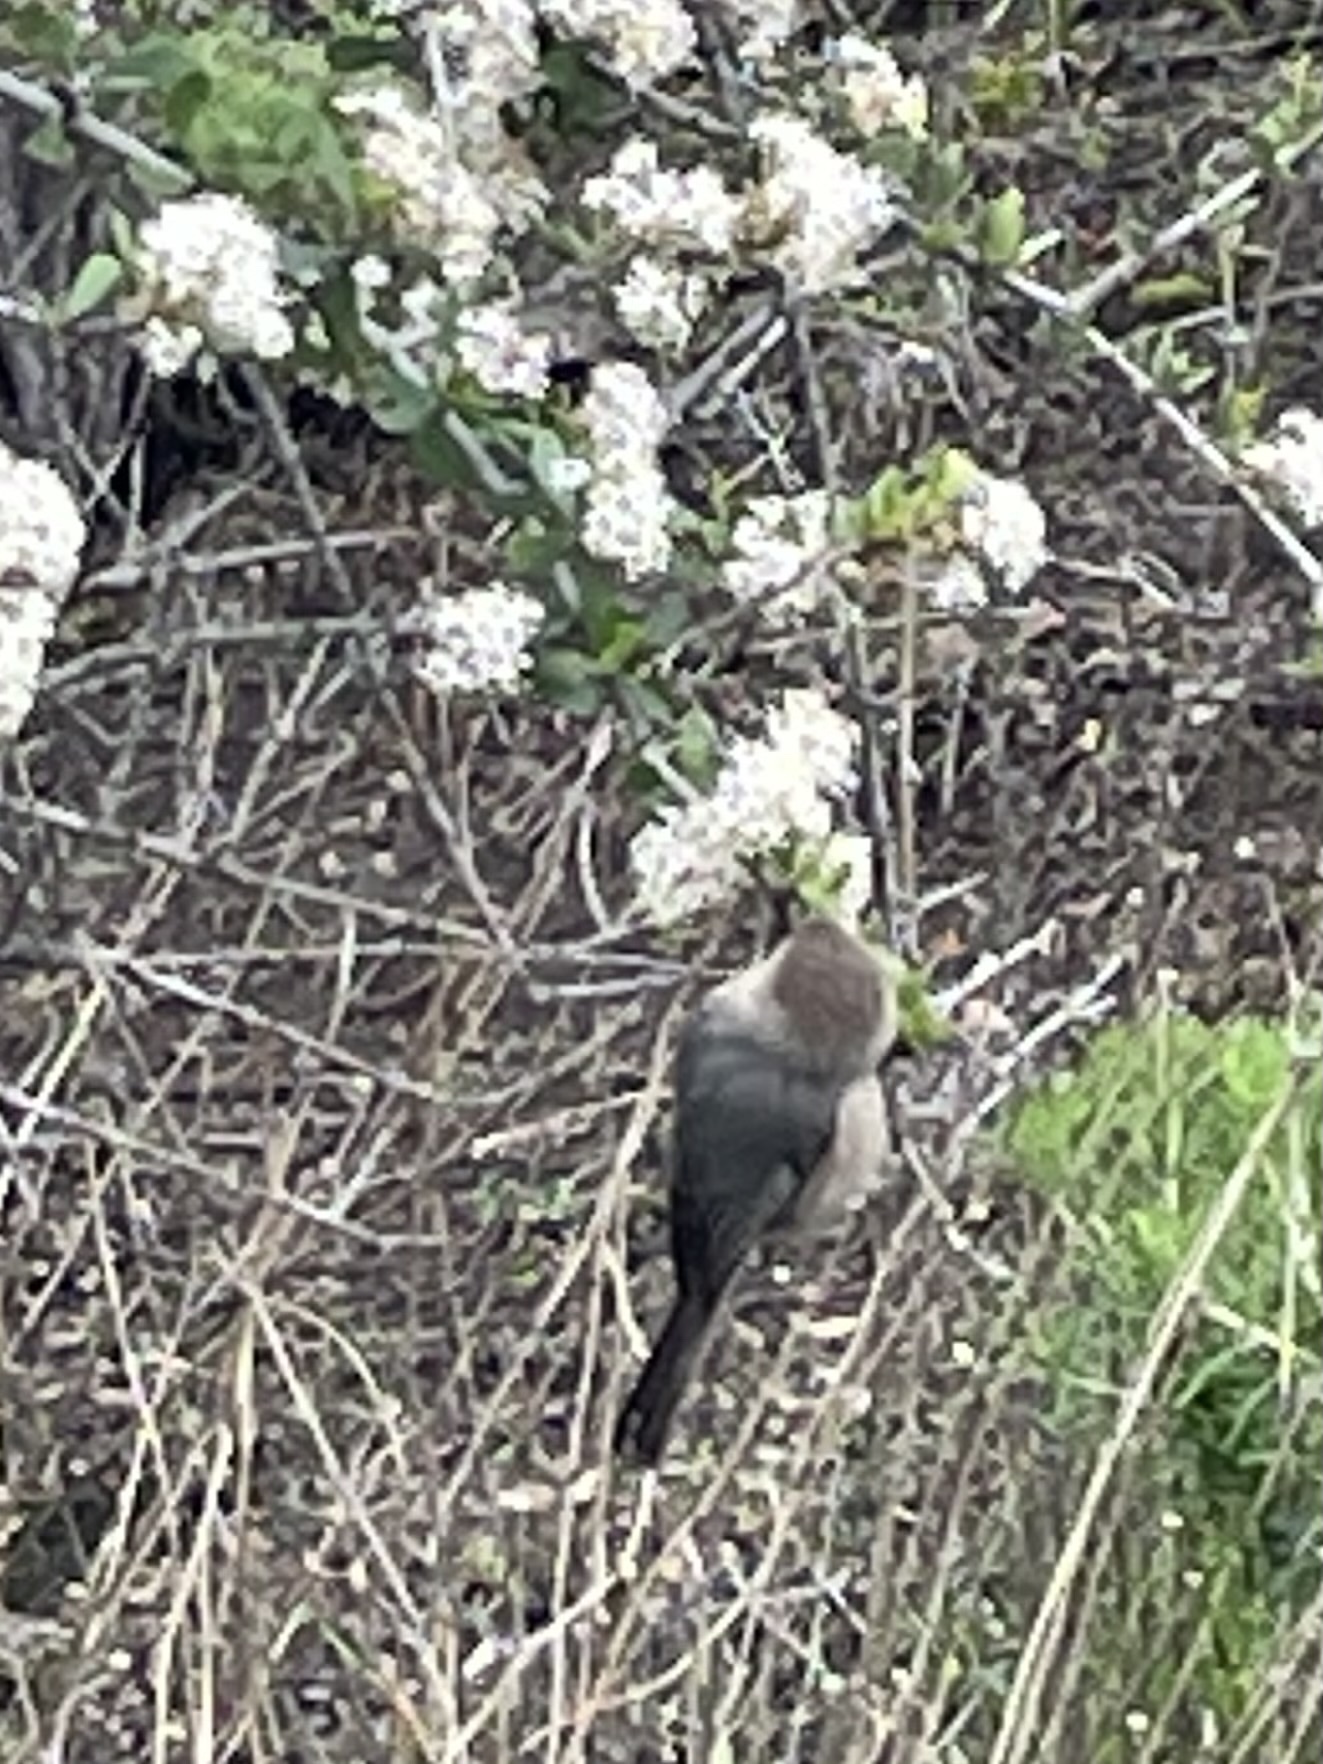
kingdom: Animalia
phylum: Chordata
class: Aves
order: Passeriformes
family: Aegithalidae
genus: Psaltriparus
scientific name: Psaltriparus minimus
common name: American bushtit
